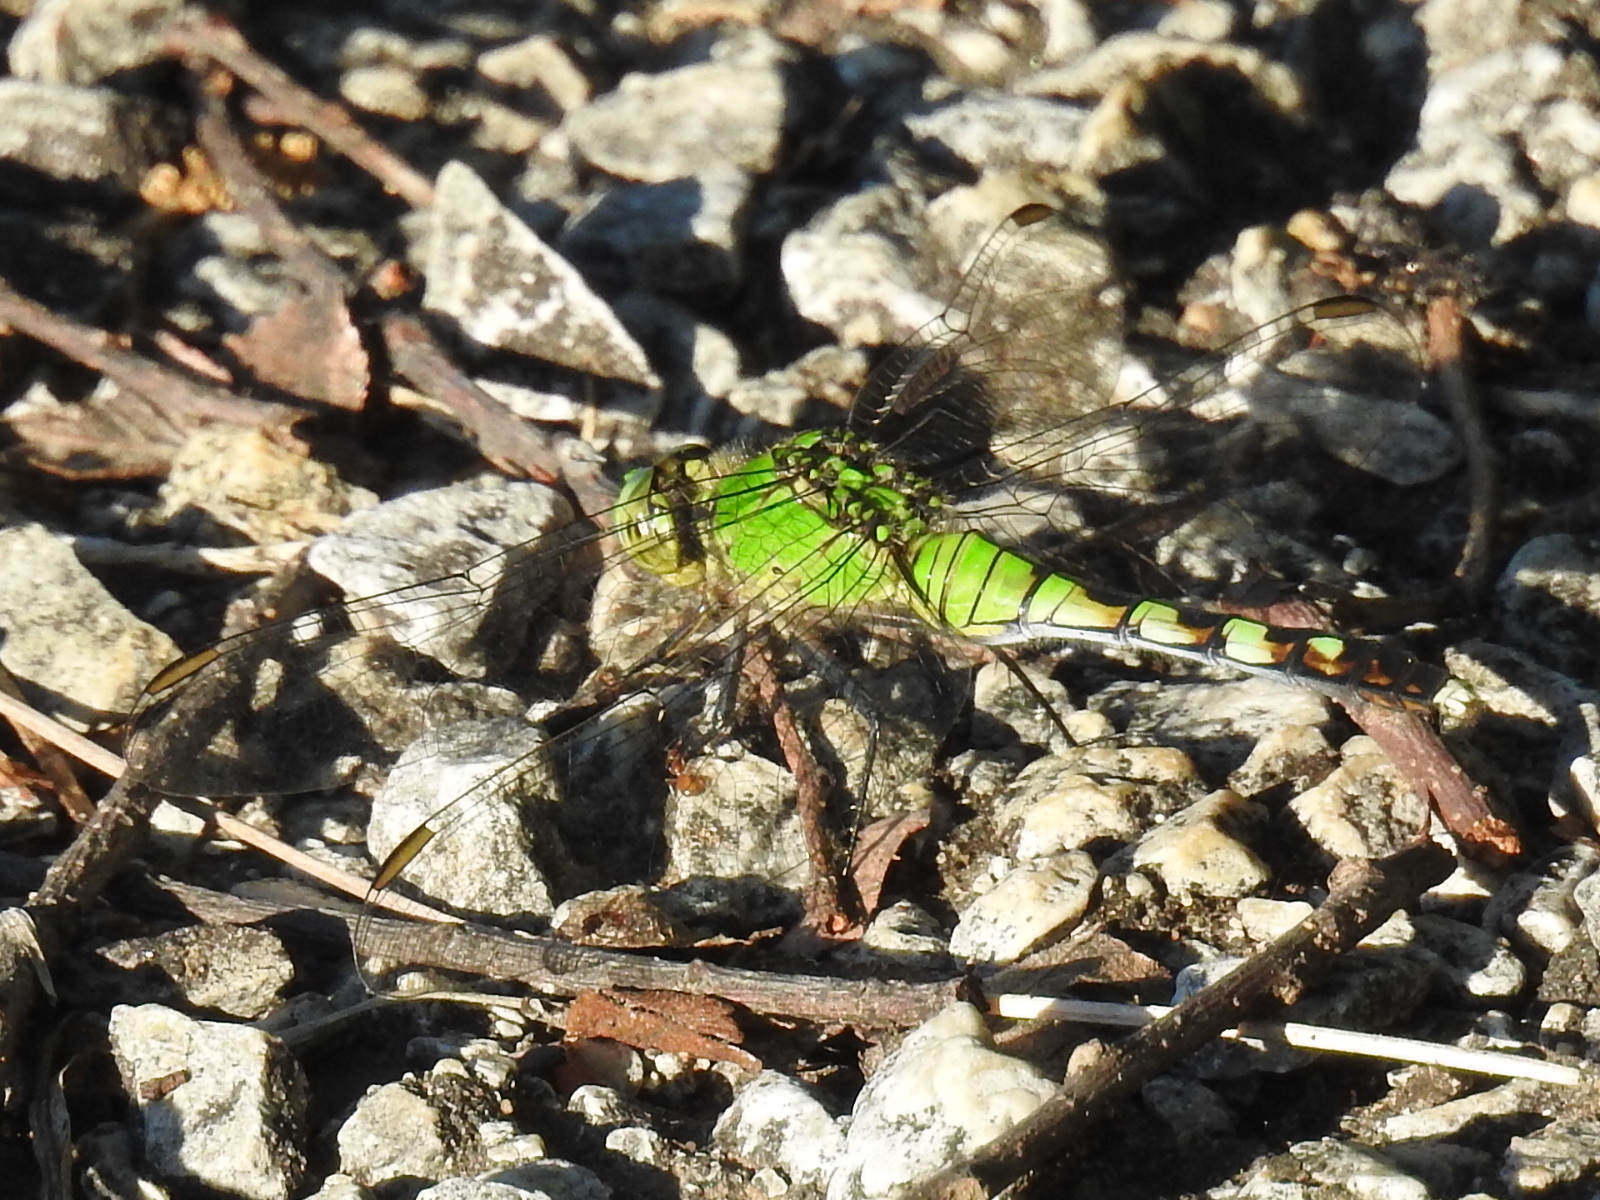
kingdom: Animalia
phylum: Arthropoda
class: Insecta
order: Odonata
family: Libellulidae
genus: Erythemis
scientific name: Erythemis simplicicollis
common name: Eastern pondhawk
